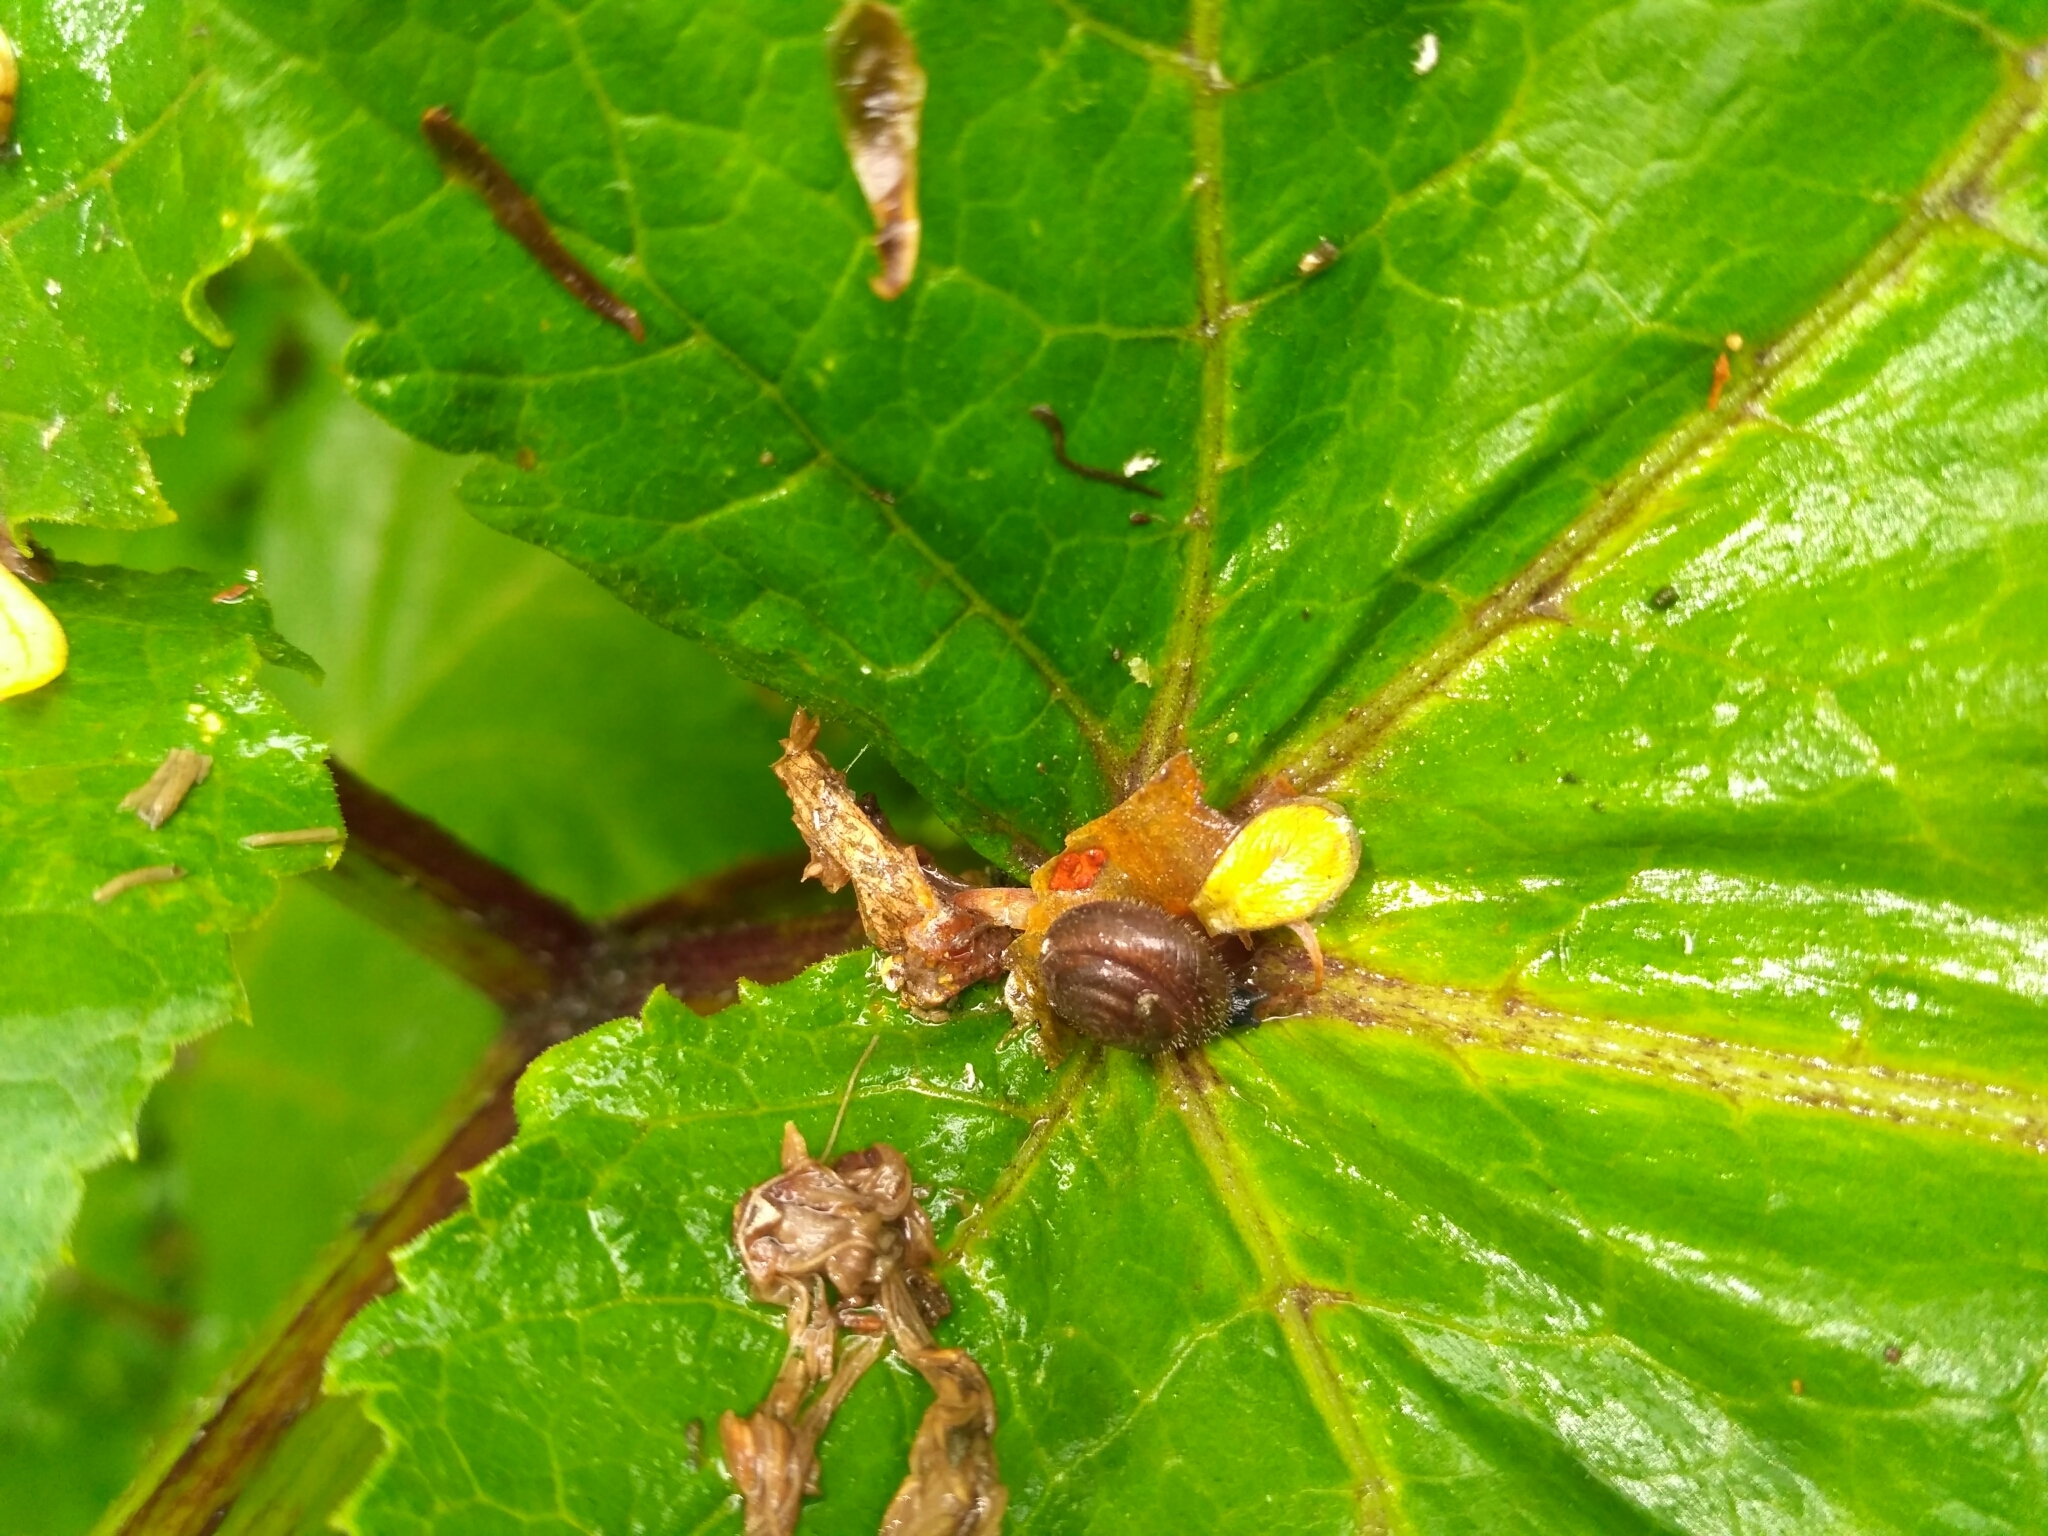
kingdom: Animalia
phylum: Mollusca
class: Gastropoda
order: Stylommatophora
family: Hygromiidae
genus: Trochulus
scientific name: Trochulus hispidus
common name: Hairy snail
